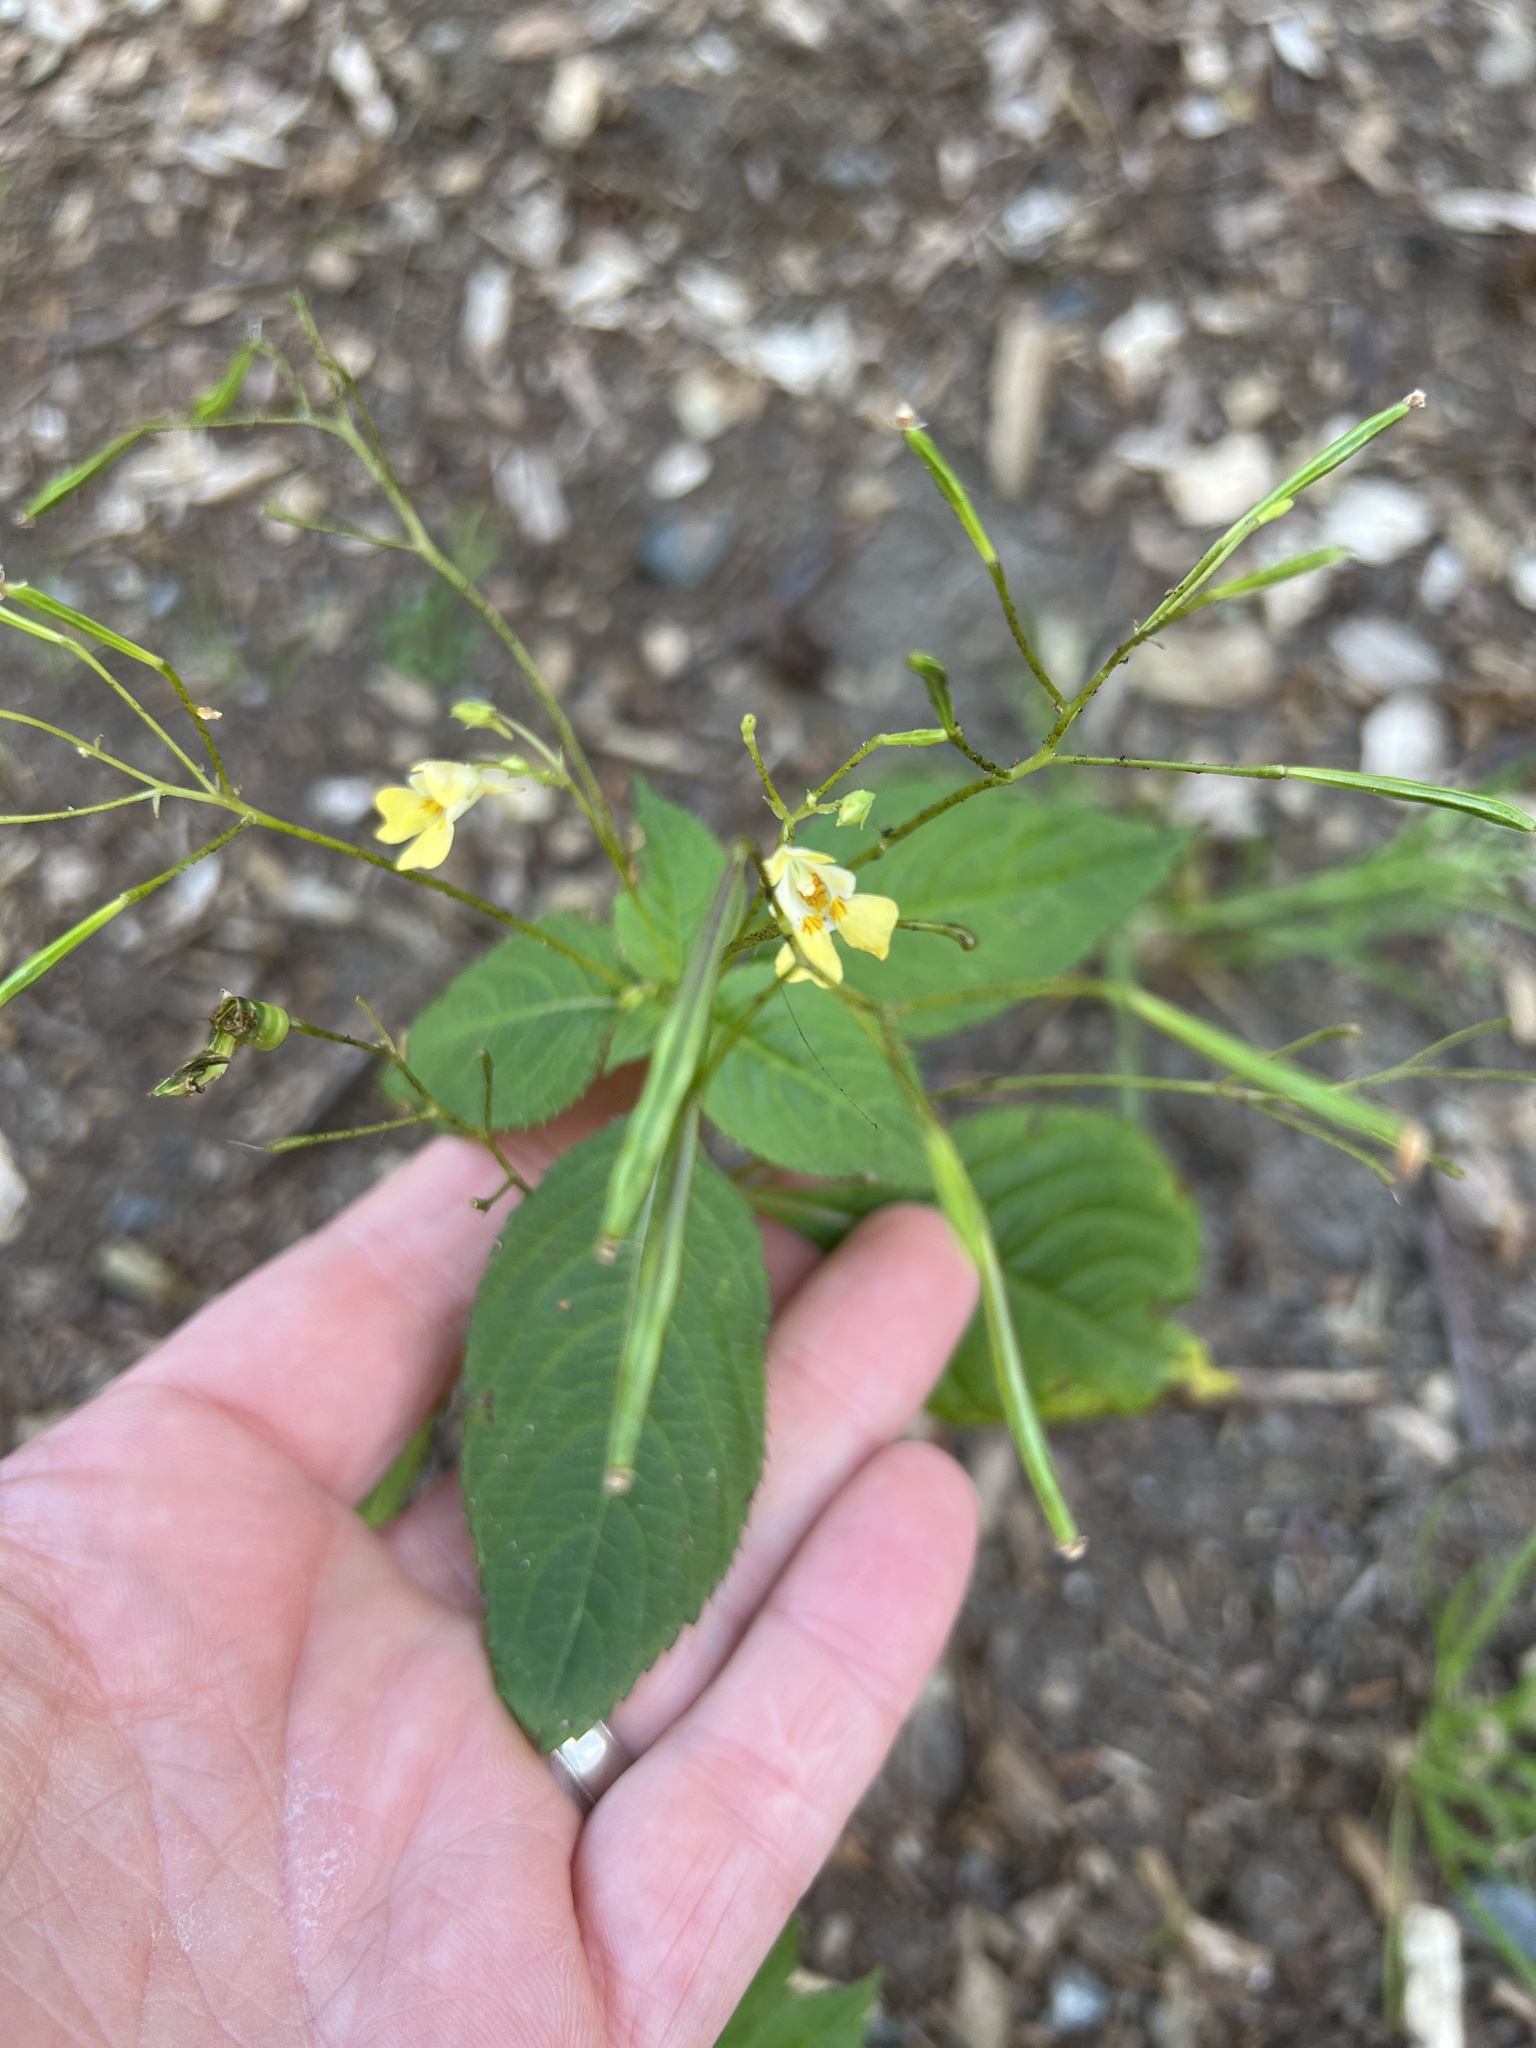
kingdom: Plantae
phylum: Tracheophyta
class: Magnoliopsida
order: Ericales
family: Balsaminaceae
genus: Impatiens
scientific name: Impatiens parviflora
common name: Small balsam
